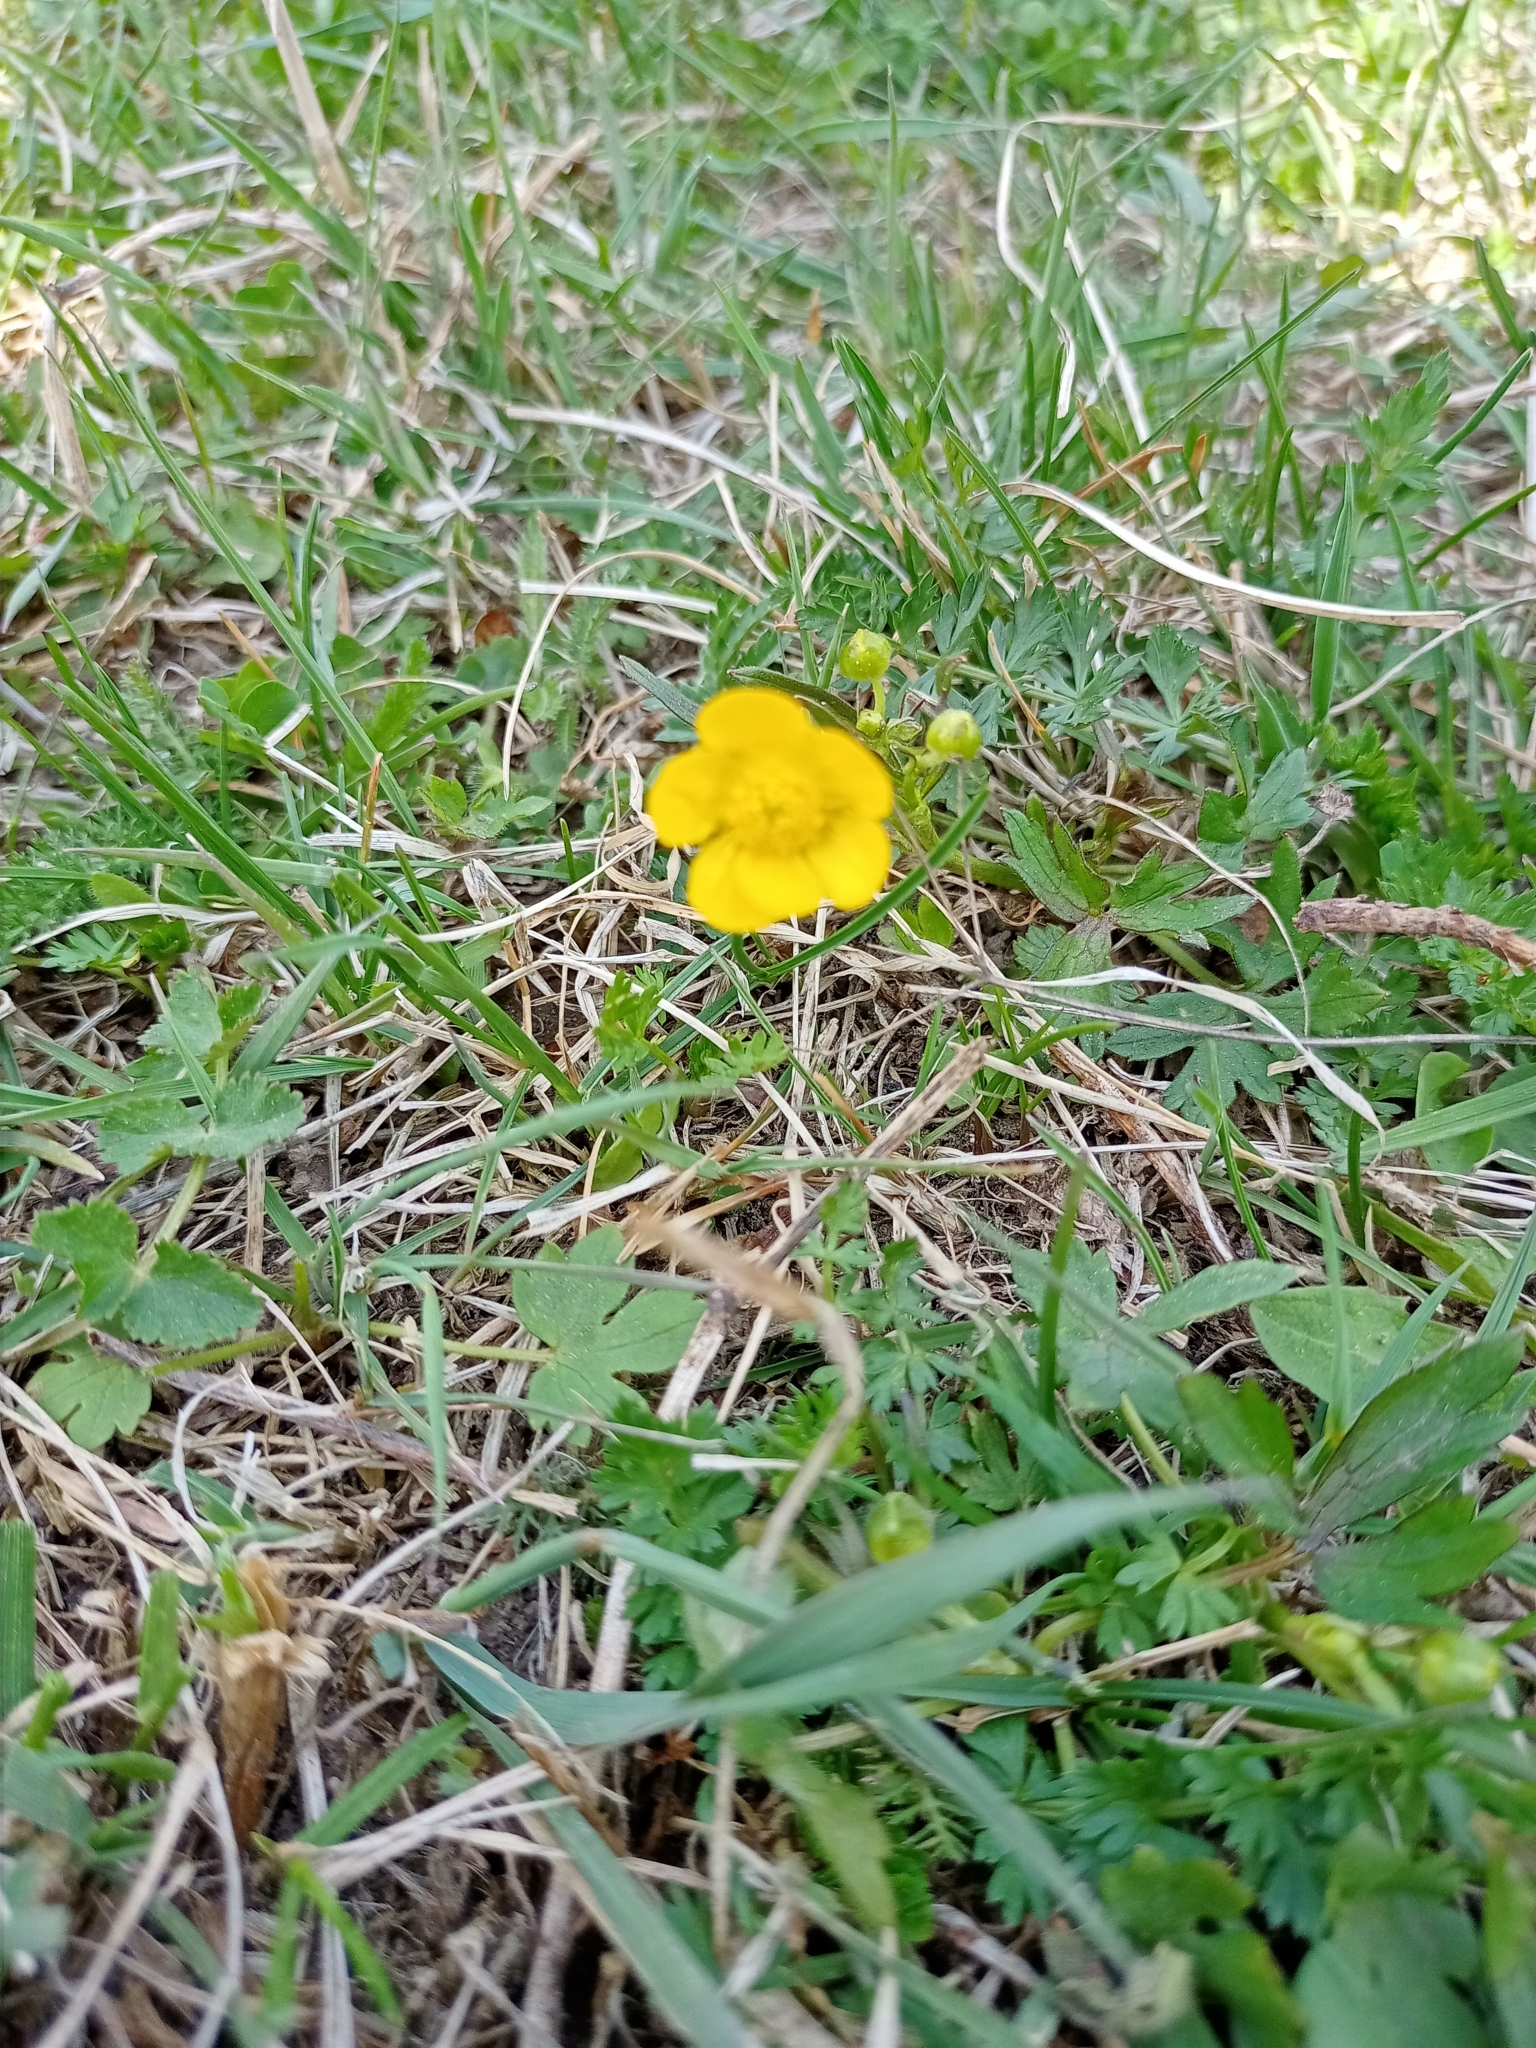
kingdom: Plantae
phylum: Tracheophyta
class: Magnoliopsida
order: Ranunculales
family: Ranunculaceae
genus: Ranunculus
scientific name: Ranunculus propinquus
